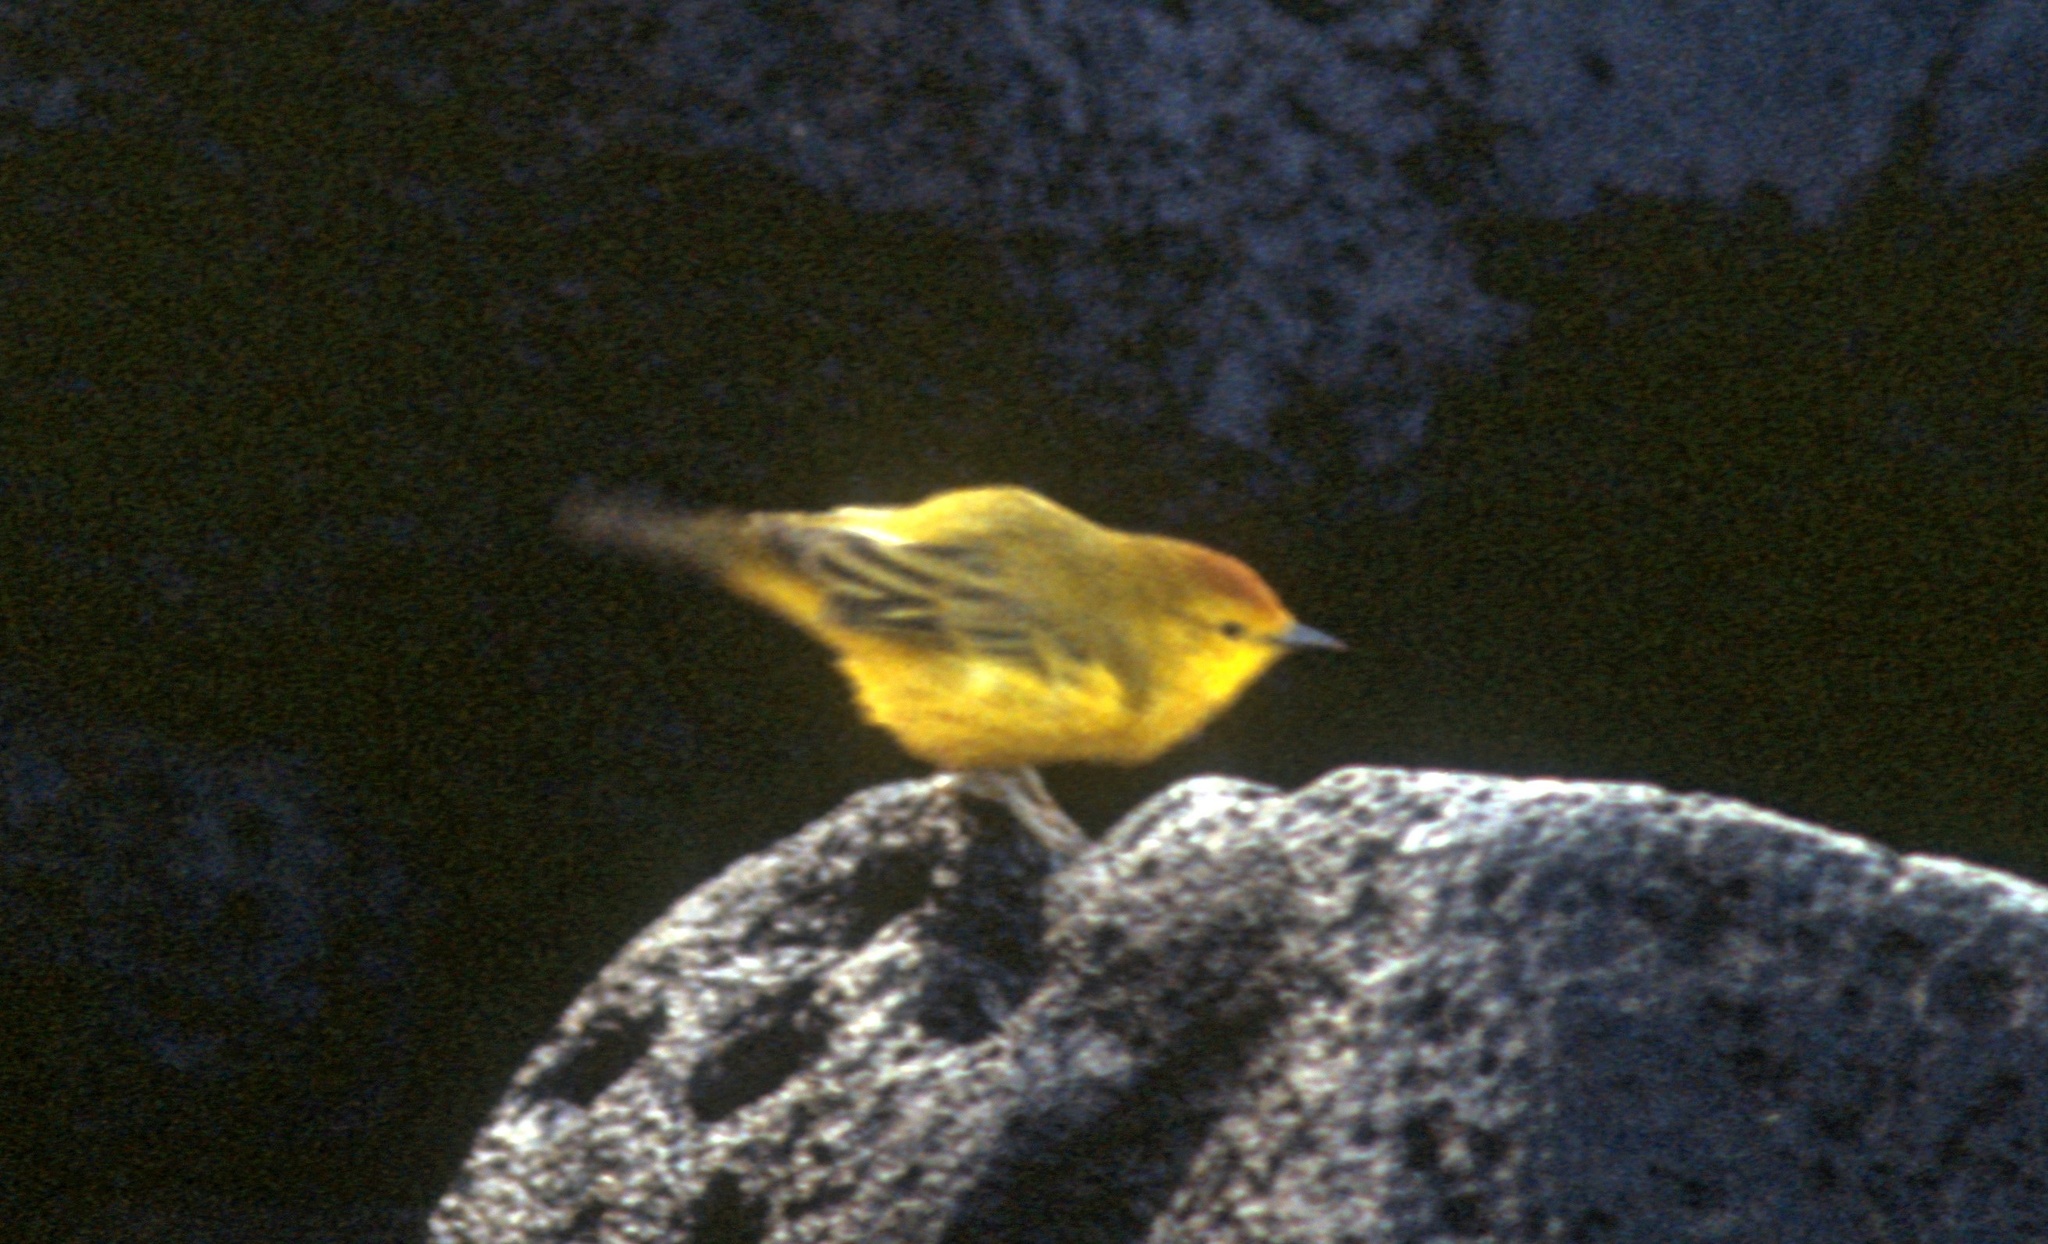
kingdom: Animalia
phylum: Chordata
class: Aves
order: Passeriformes
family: Parulidae
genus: Setophaga
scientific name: Setophaga petechia
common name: Yellow warbler
